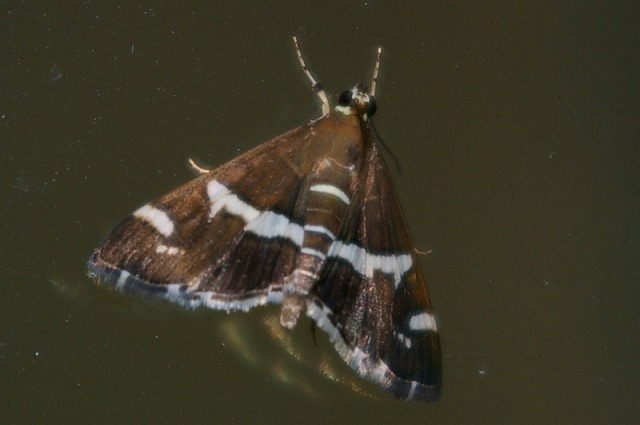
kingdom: Animalia
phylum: Arthropoda
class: Insecta
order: Lepidoptera
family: Crambidae
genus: Spoladea
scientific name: Spoladea recurvalis
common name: Beet webworm moth
